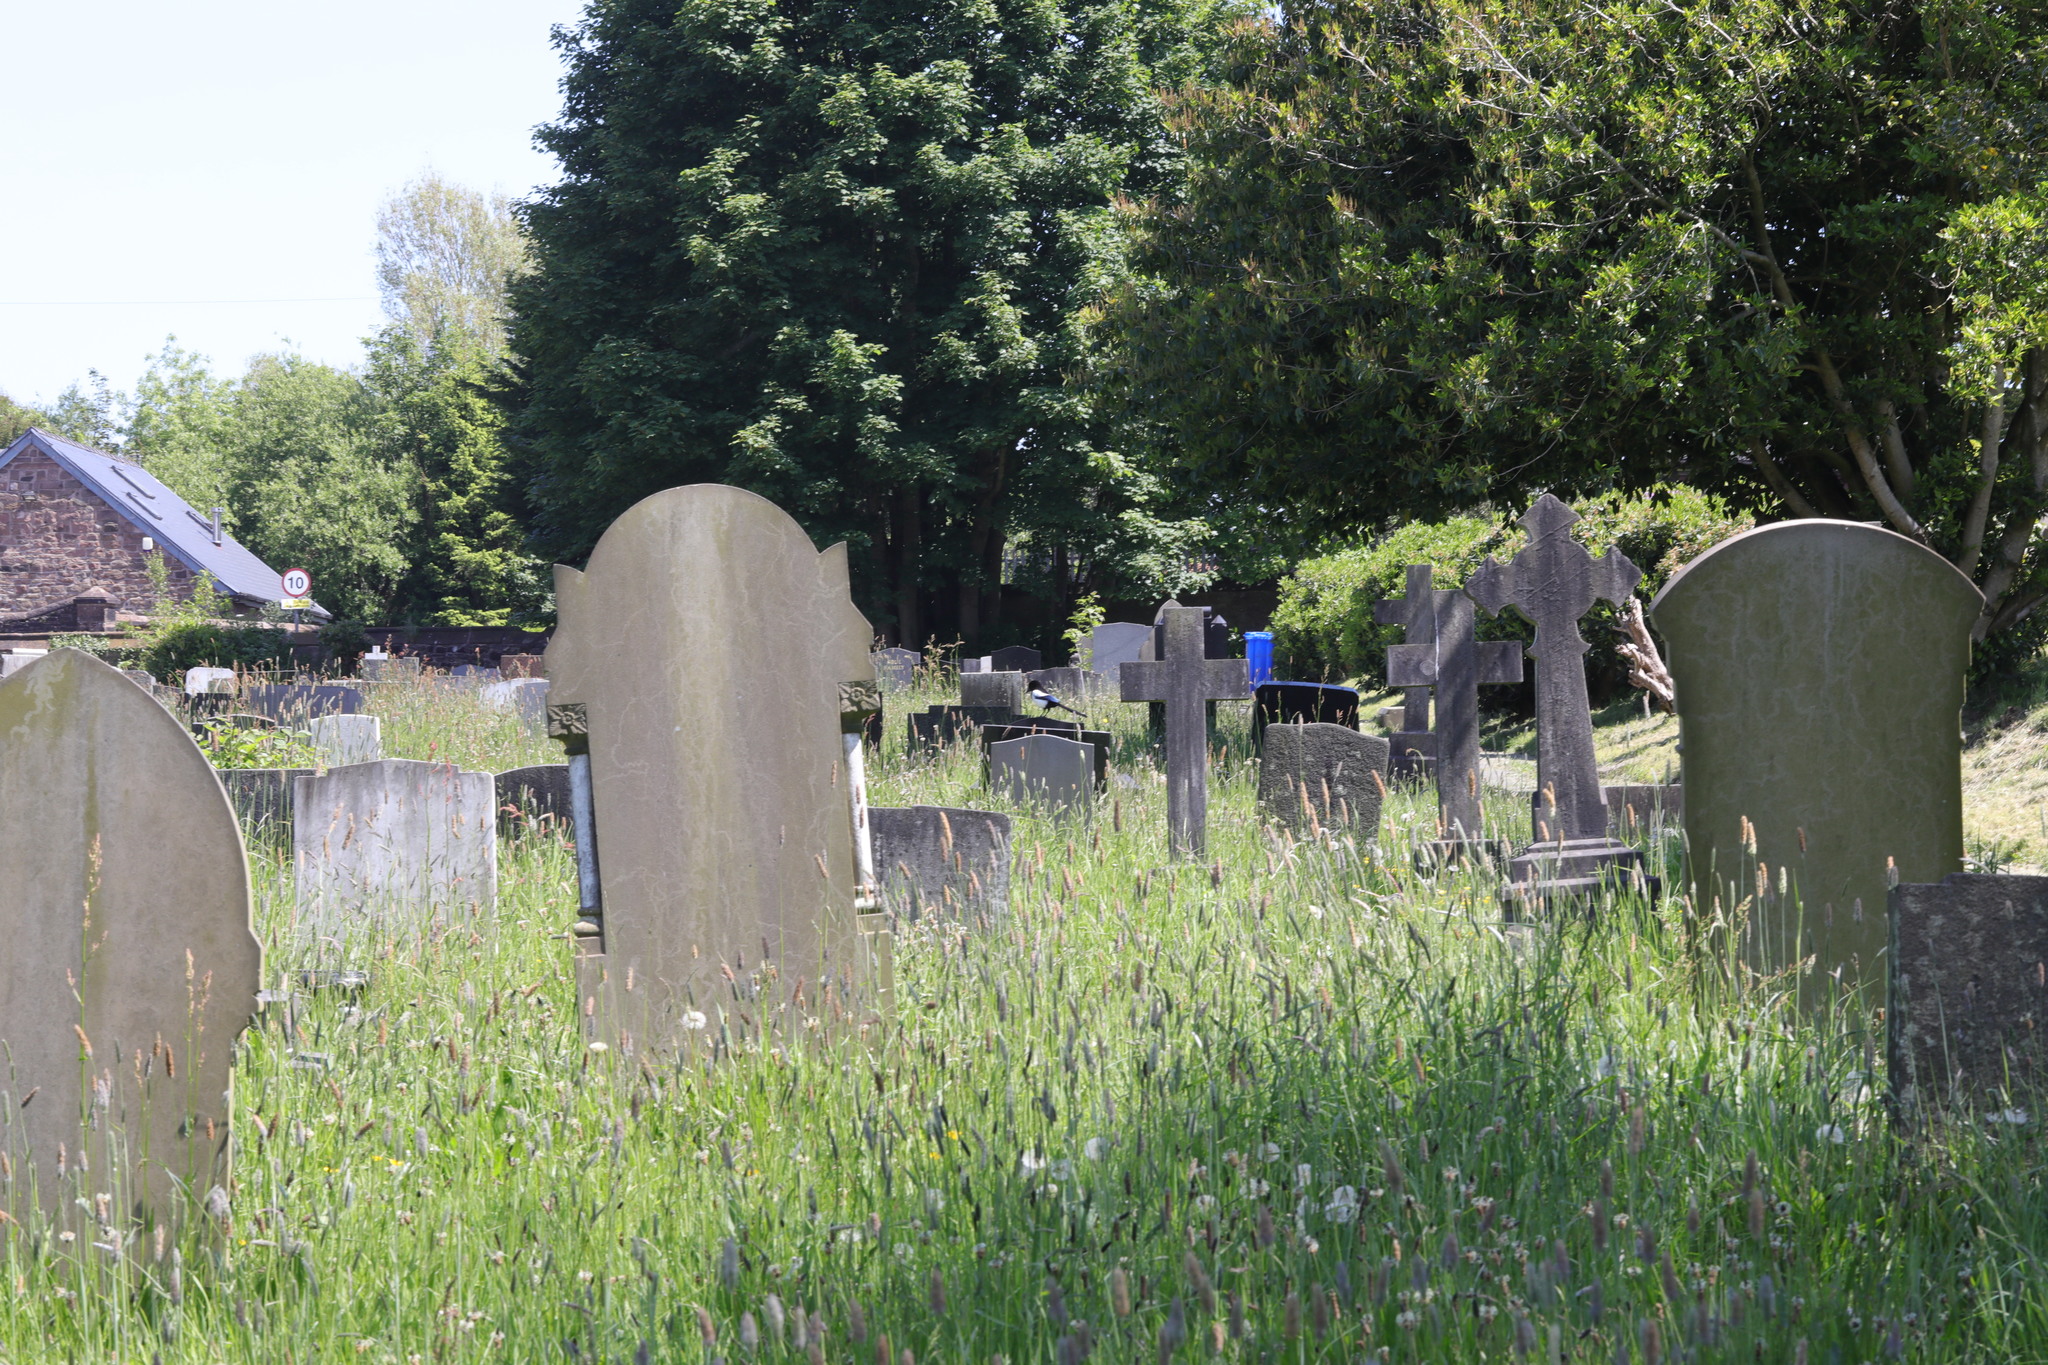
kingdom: Animalia
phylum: Chordata
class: Aves
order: Passeriformes
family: Corvidae
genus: Pica
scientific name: Pica pica
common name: Eurasian magpie
